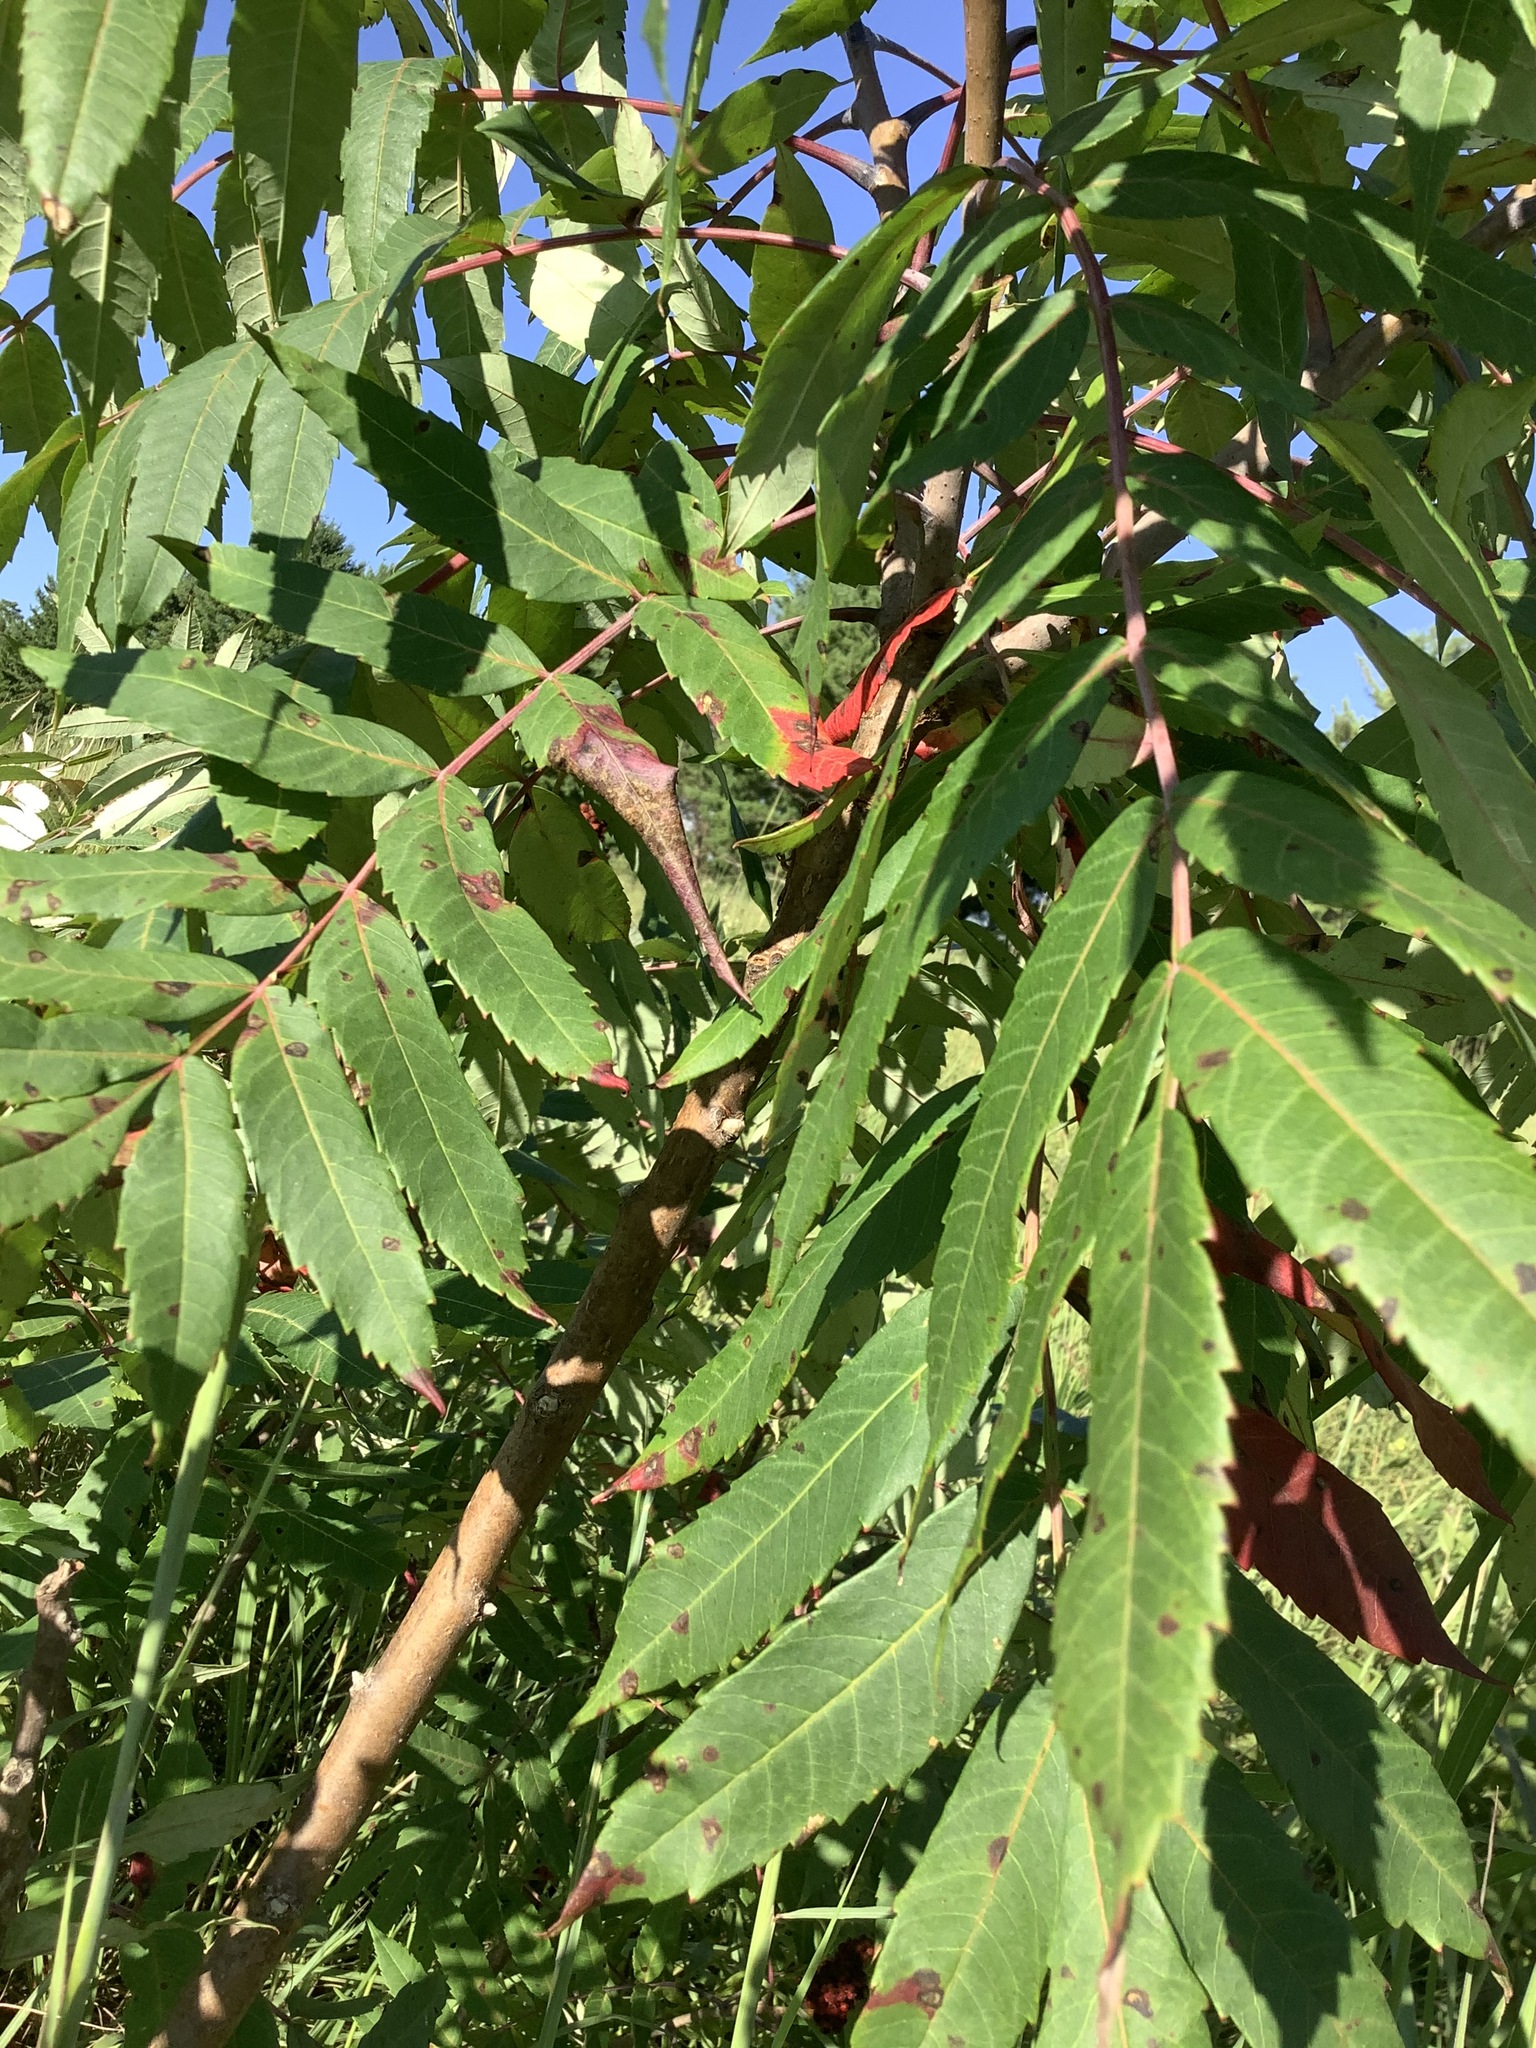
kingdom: Plantae
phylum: Tracheophyta
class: Magnoliopsida
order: Sapindales
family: Anacardiaceae
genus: Rhus
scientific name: Rhus glabra
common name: Scarlet sumac
